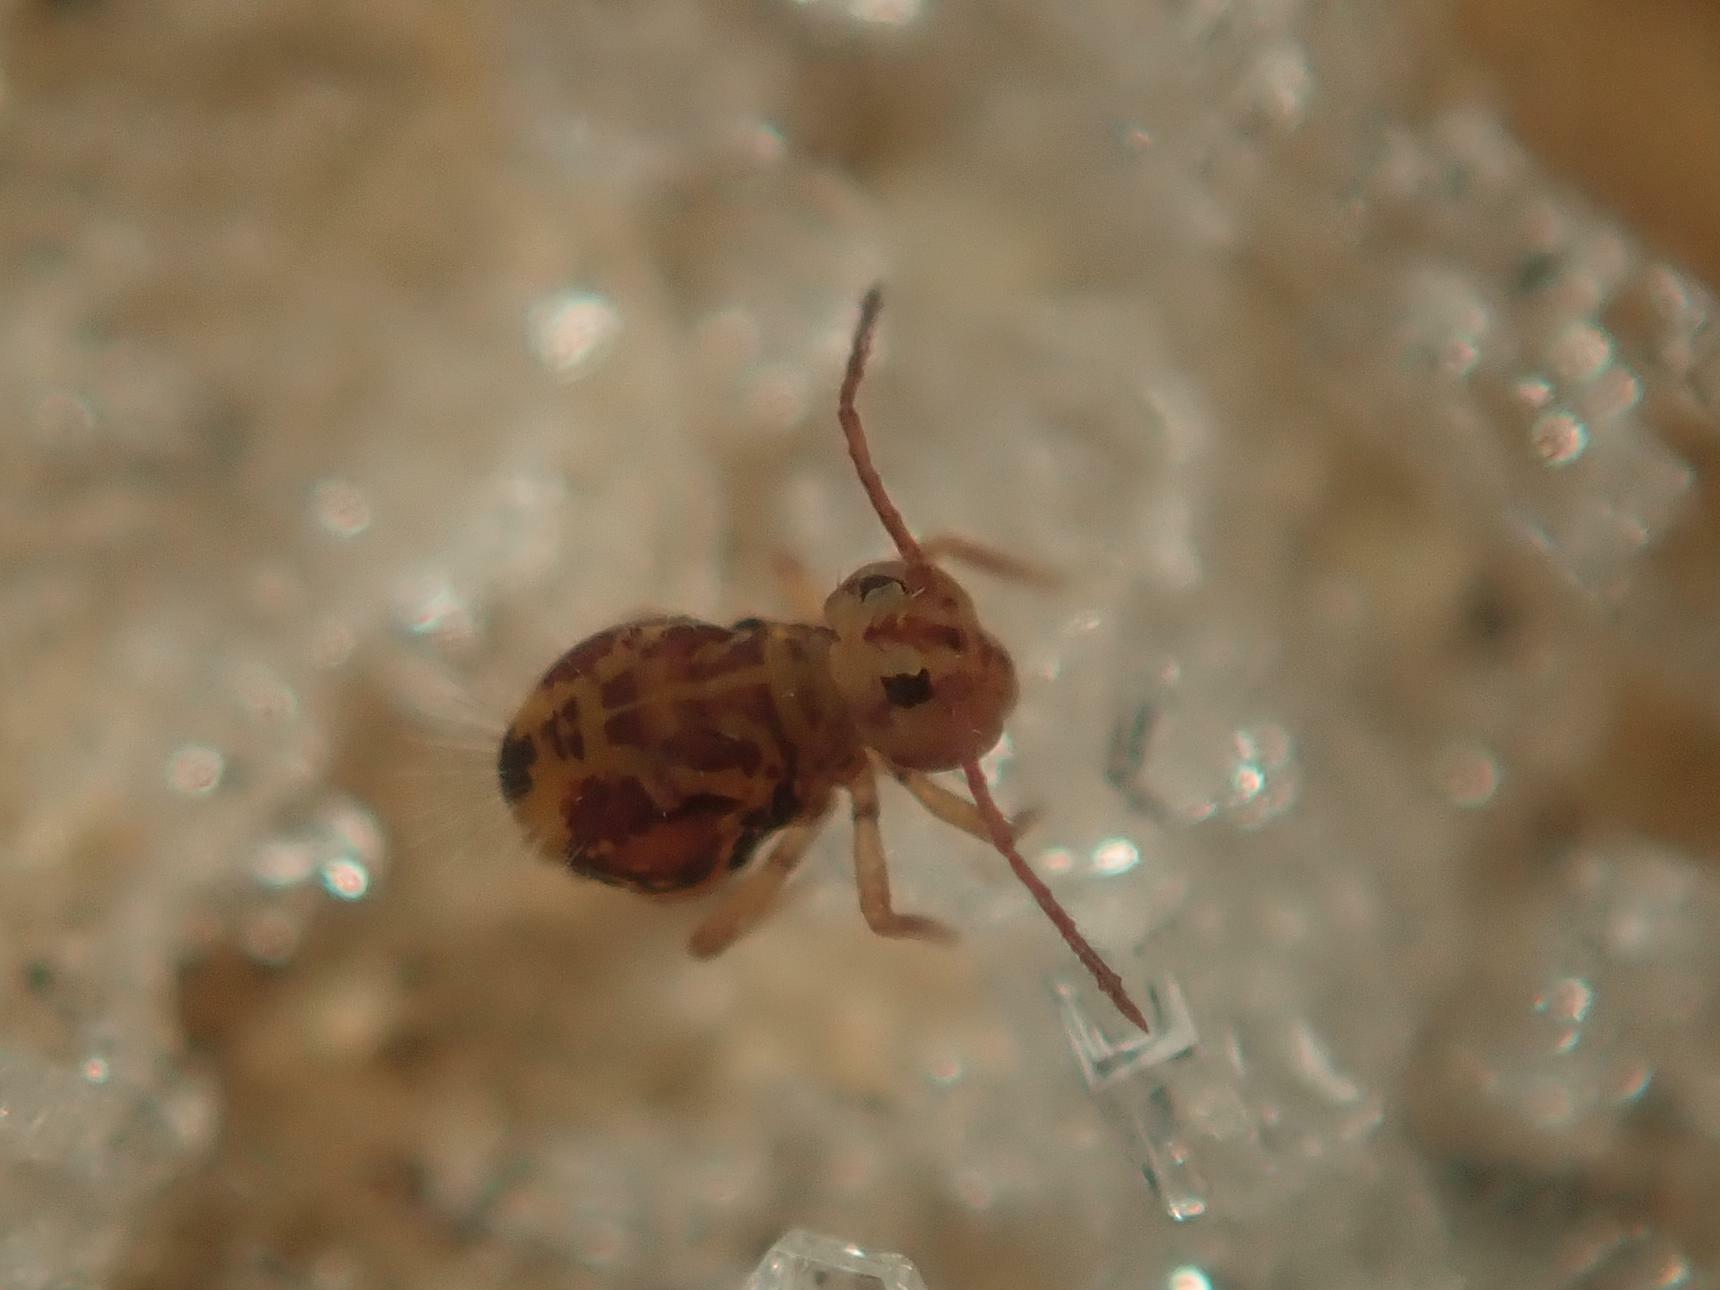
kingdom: Animalia
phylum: Arthropoda
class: Collembola
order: Symphypleona
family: Dicyrtomidae
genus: Dicyrtomina
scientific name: Dicyrtomina ornata
